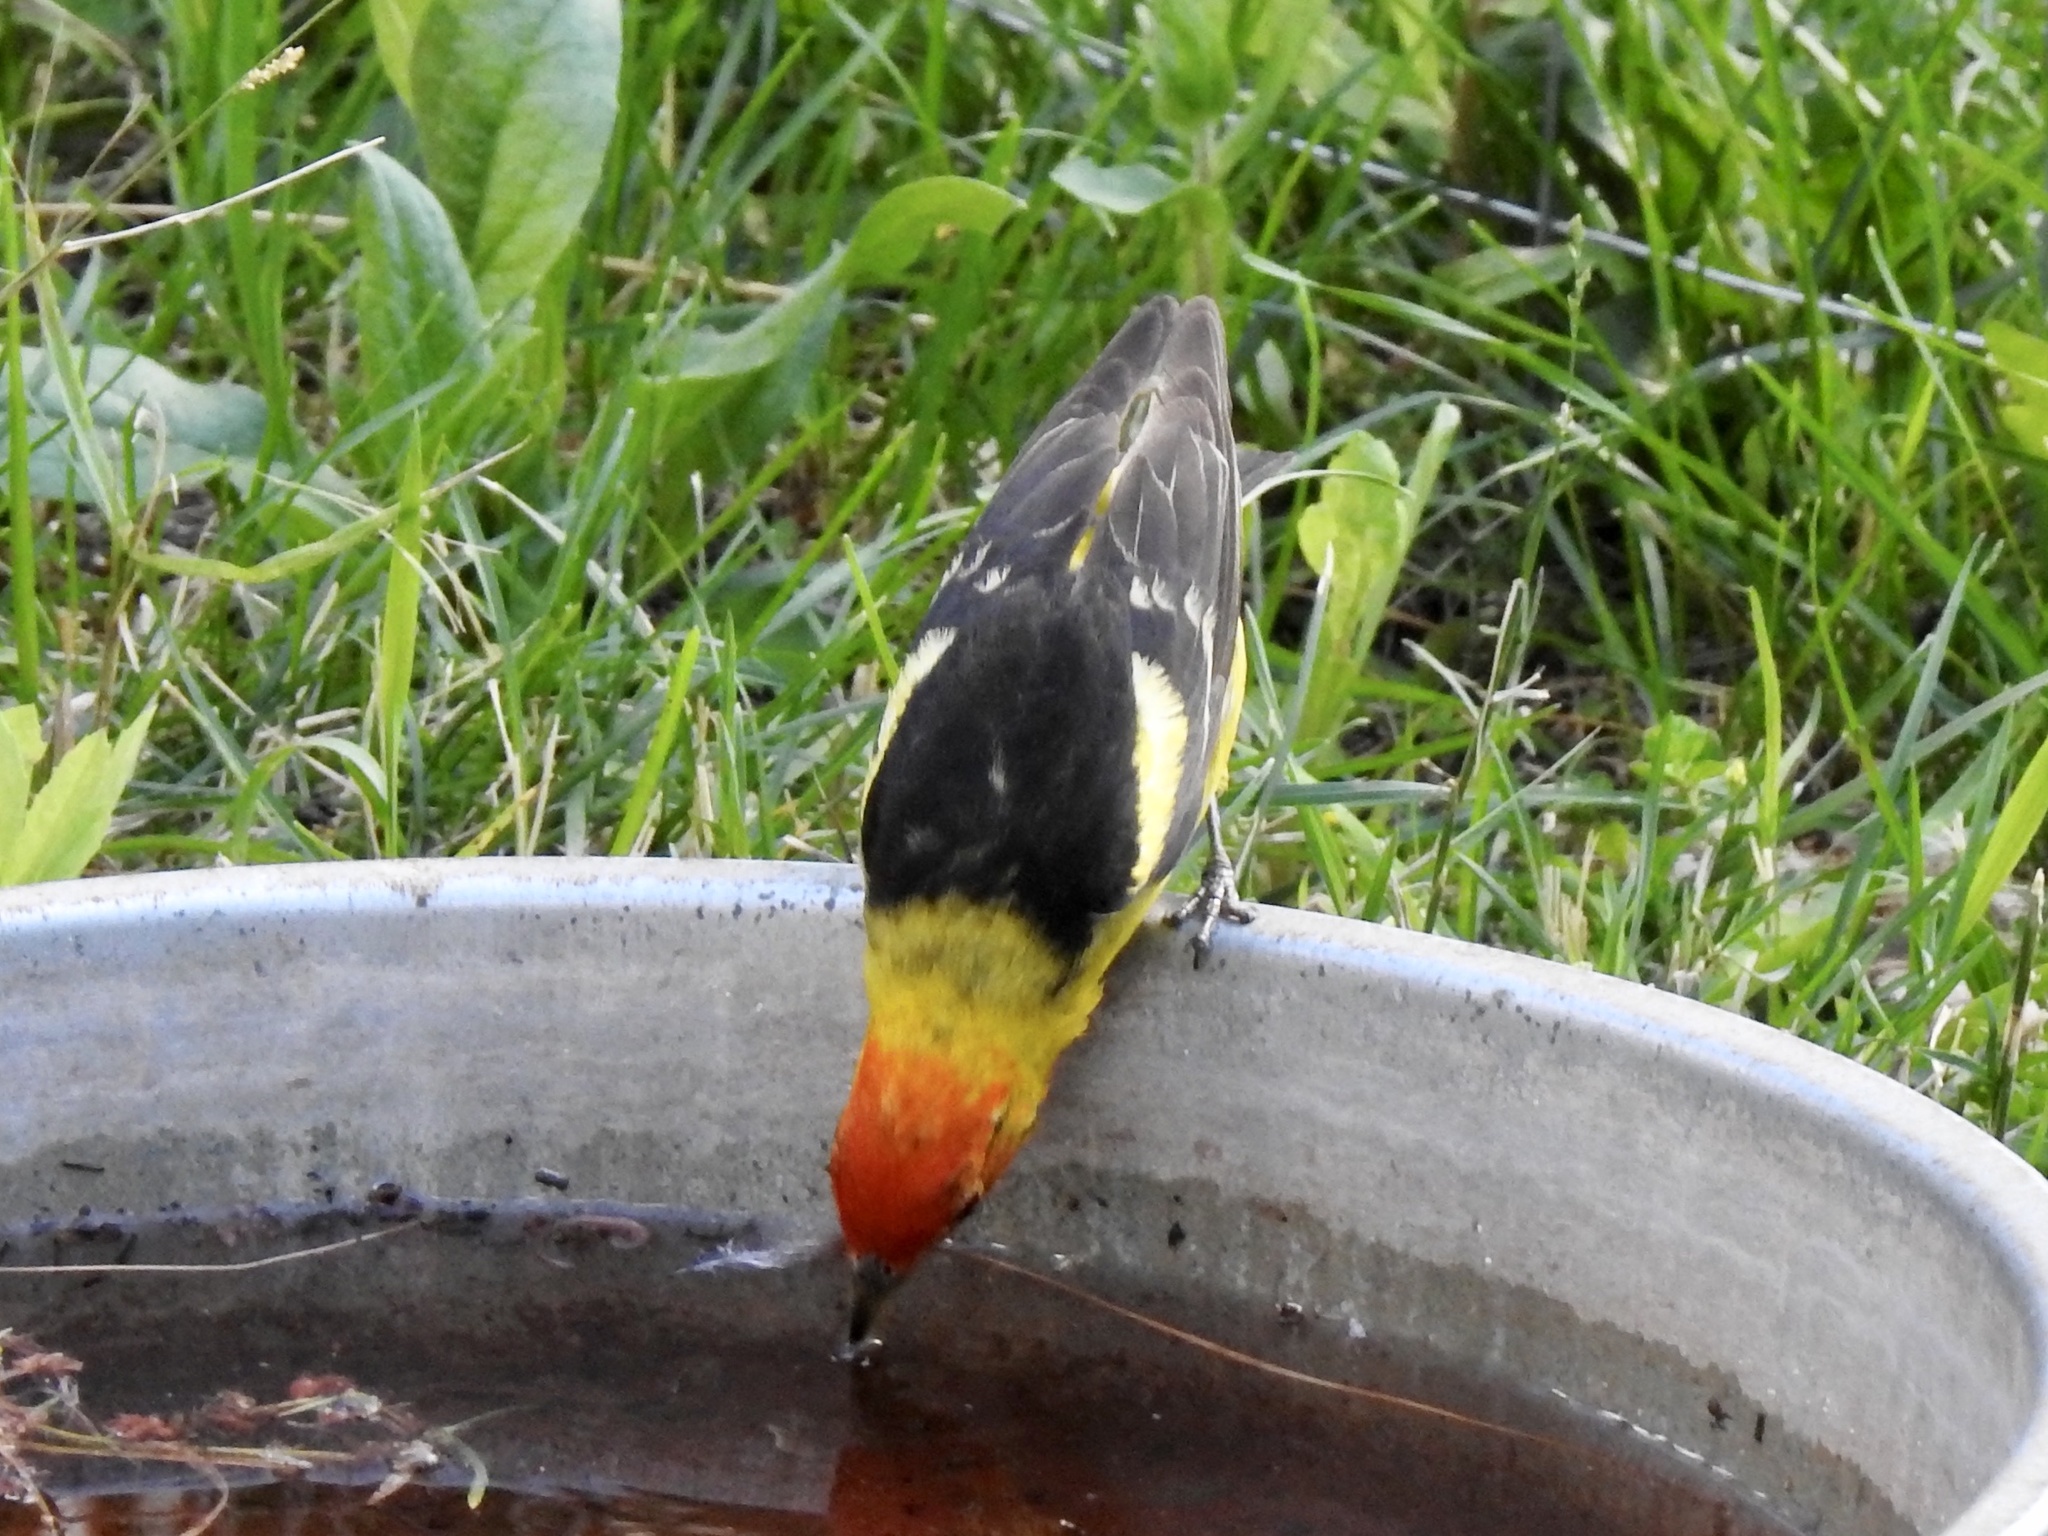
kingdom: Animalia
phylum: Chordata
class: Aves
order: Passeriformes
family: Cardinalidae
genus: Piranga
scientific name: Piranga ludoviciana
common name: Western tanager
